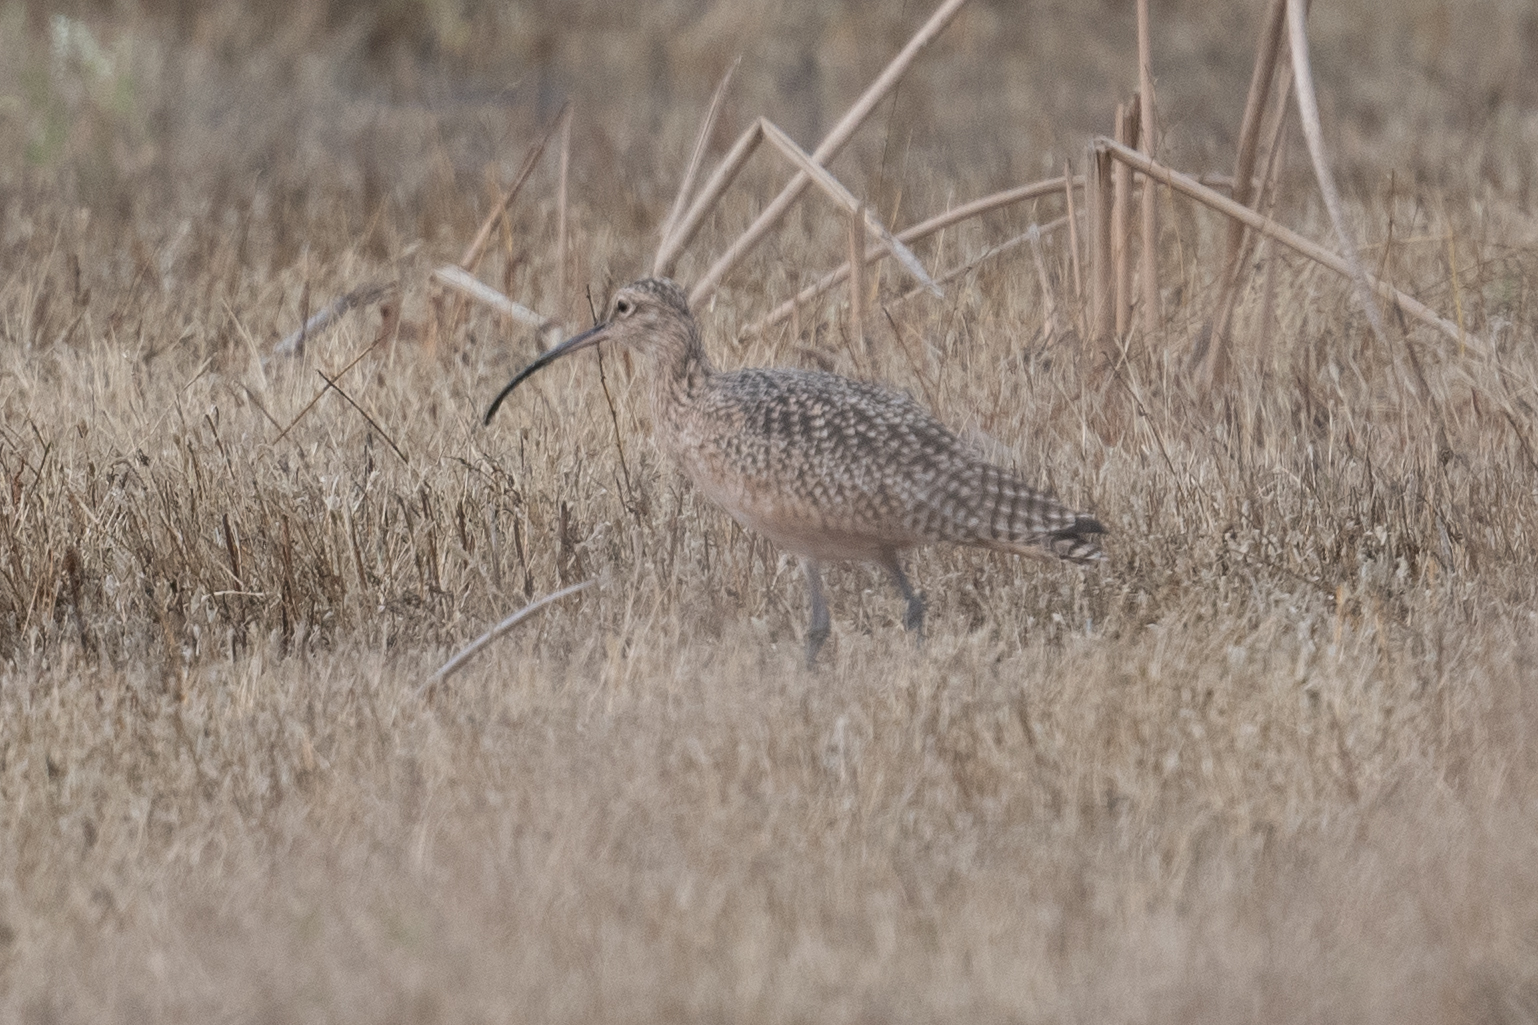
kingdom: Animalia
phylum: Chordata
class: Aves
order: Charadriiformes
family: Scolopacidae
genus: Numenius
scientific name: Numenius americanus
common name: Long-billed curlew
